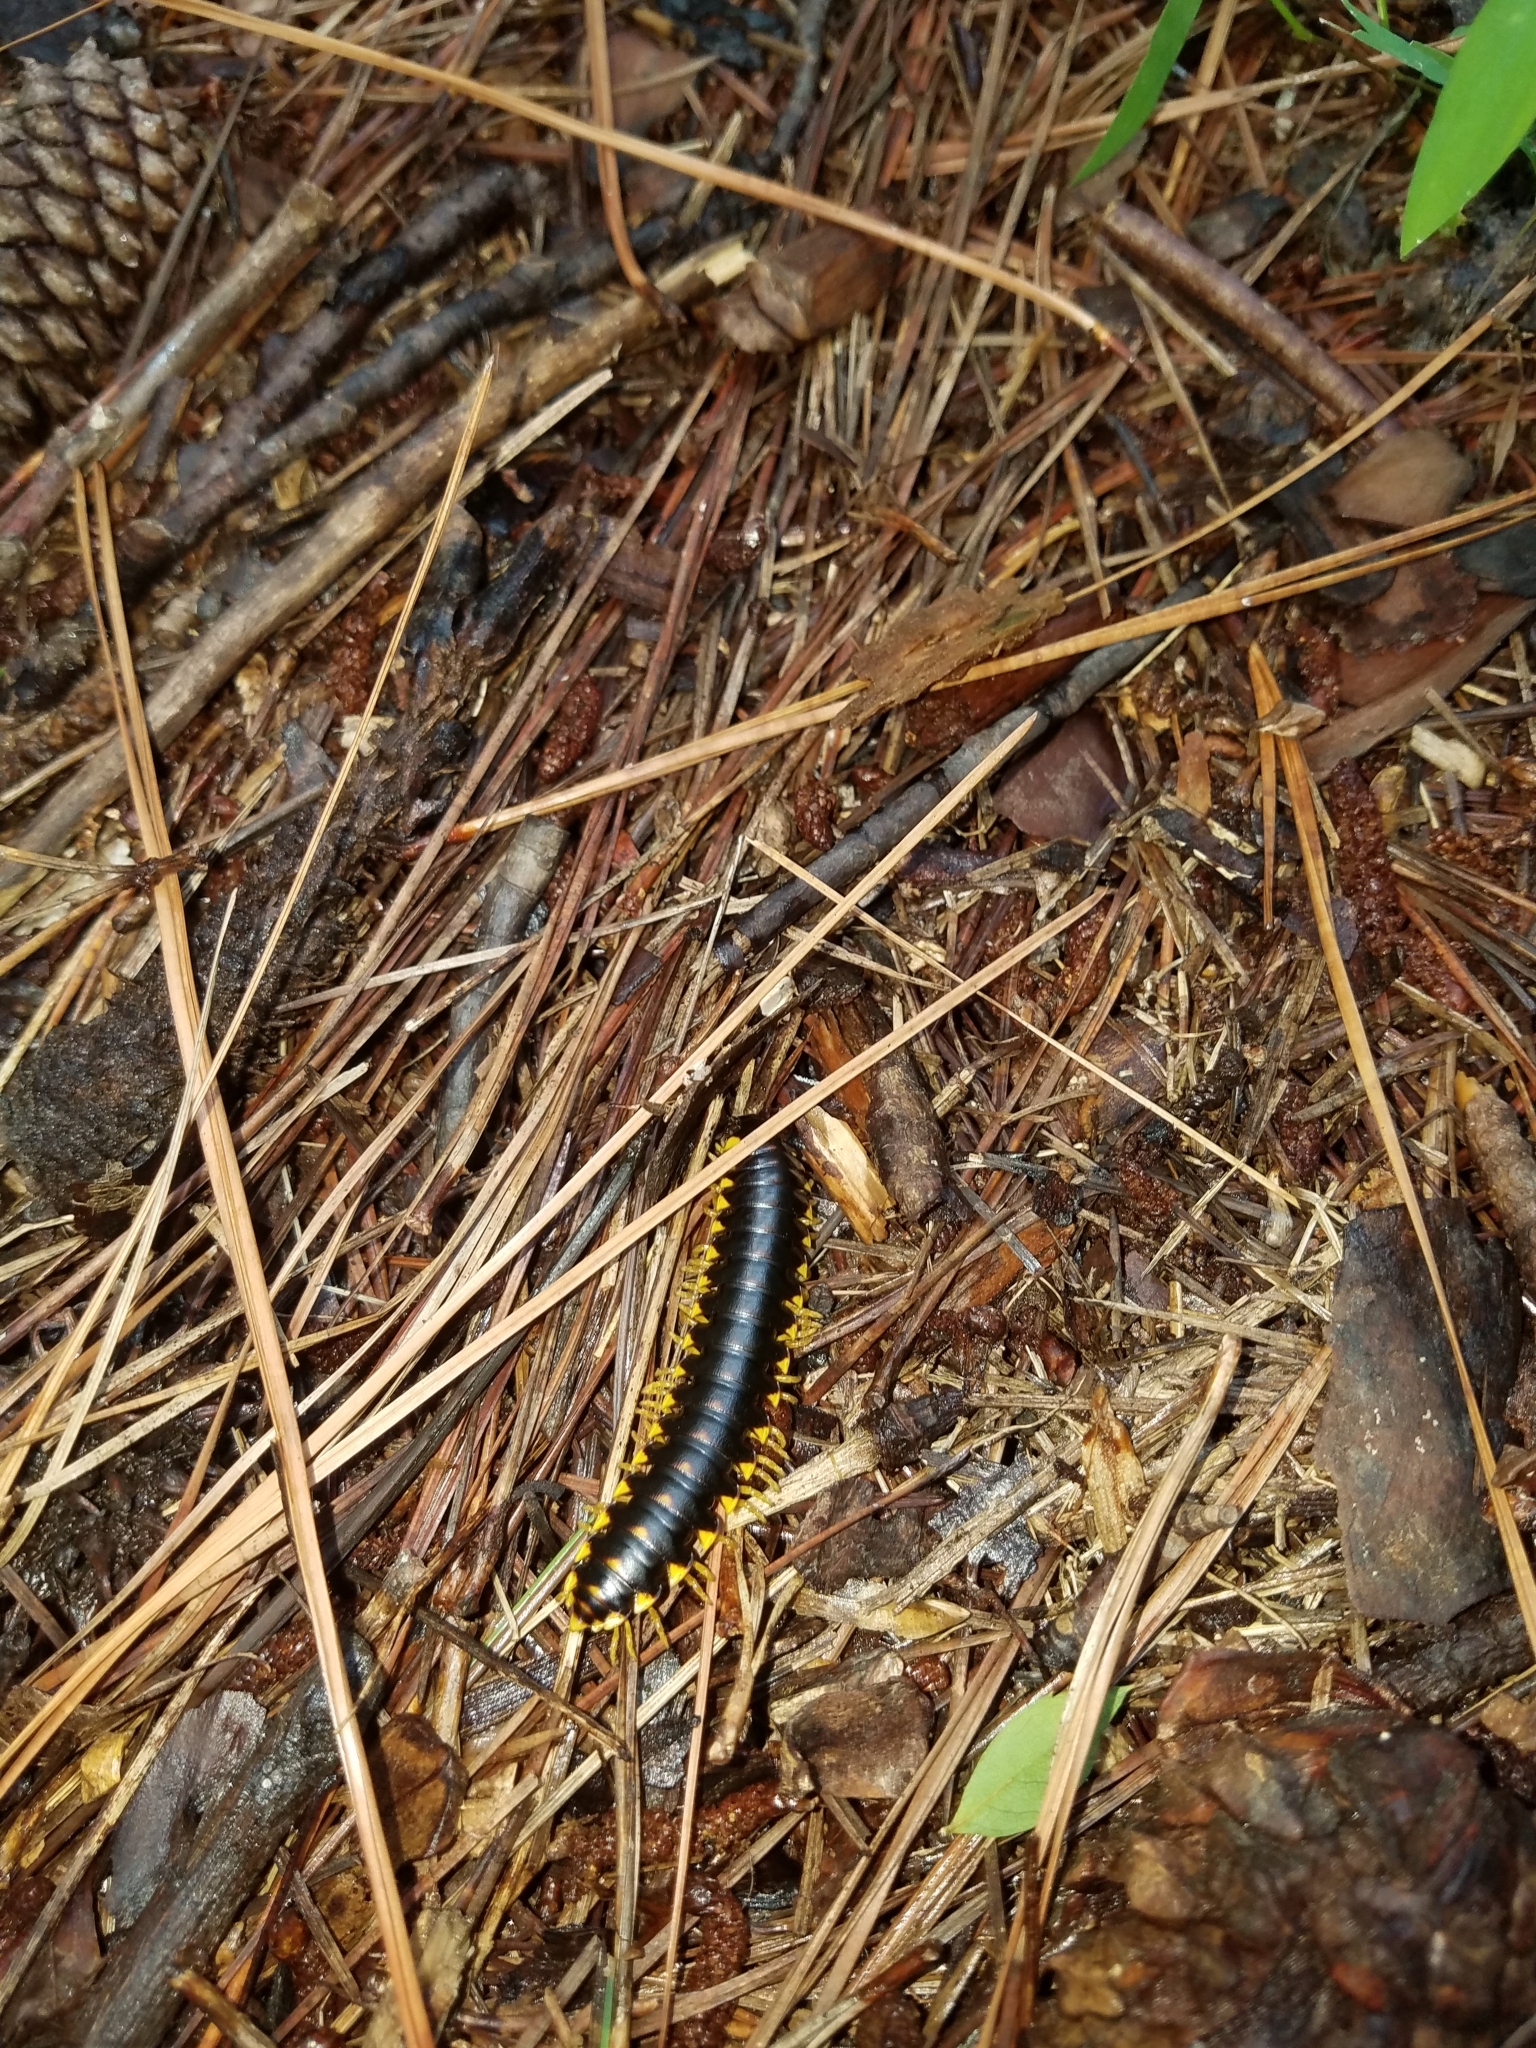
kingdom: Animalia
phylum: Arthropoda
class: Diplopoda
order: Polydesmida
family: Xystodesmidae
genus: Apheloria
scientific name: Apheloria tigana
